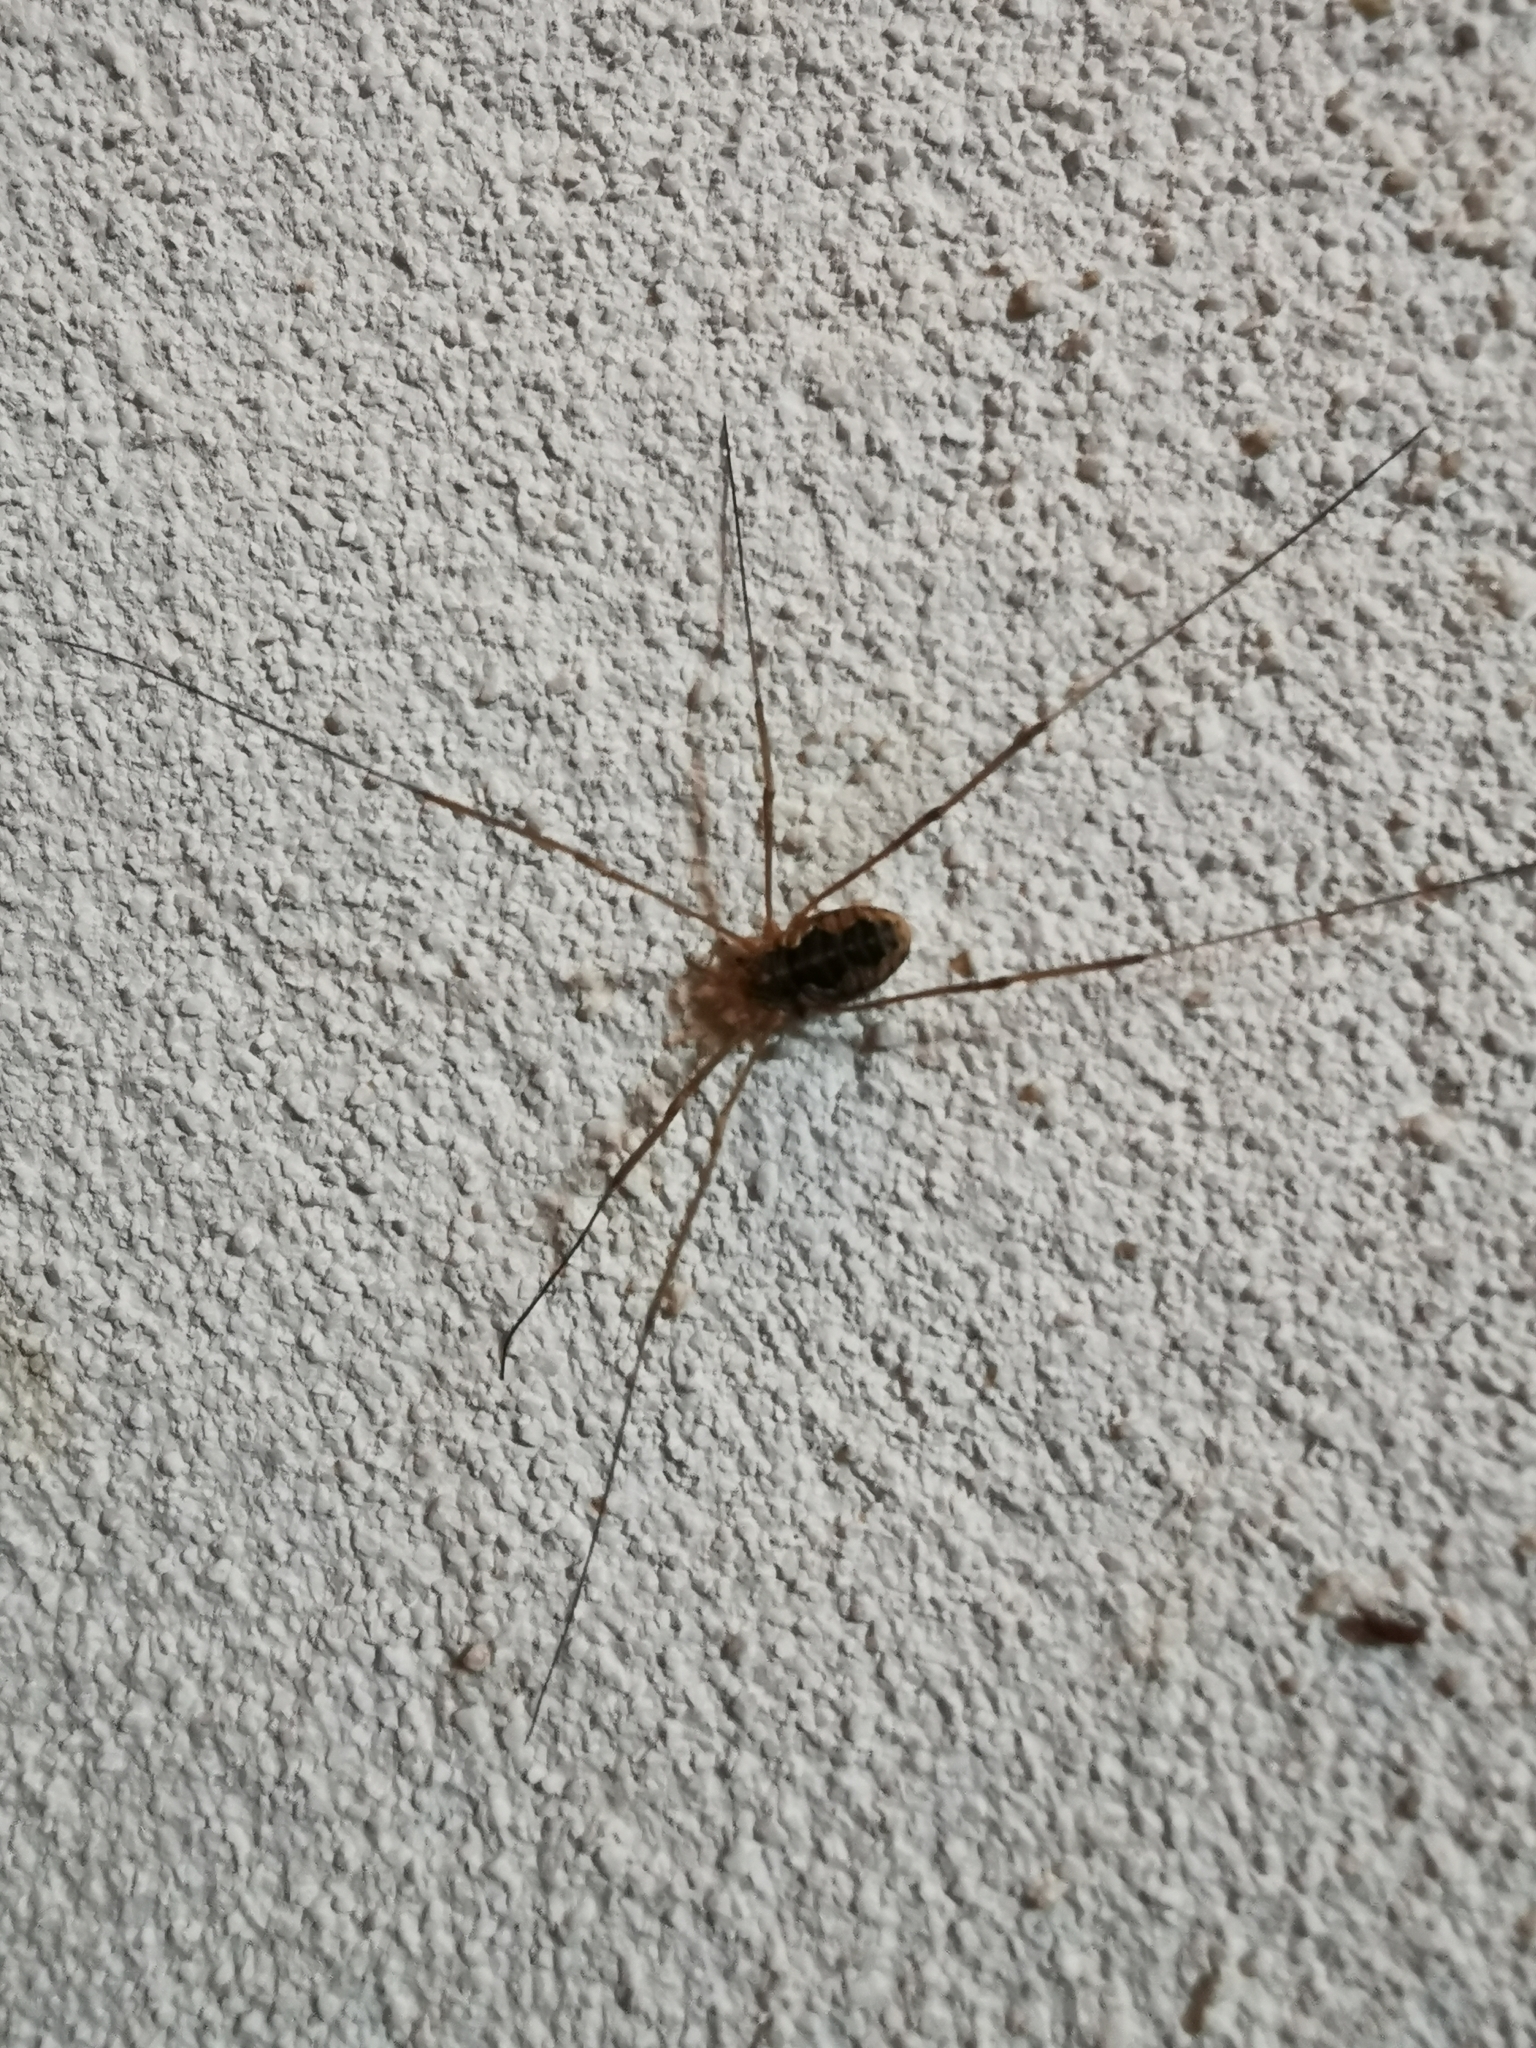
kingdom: Animalia
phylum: Arthropoda
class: Arachnida
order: Opiliones
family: Phalangiidae
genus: Phalangium
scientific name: Phalangium opilio
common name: Daddy longleg
